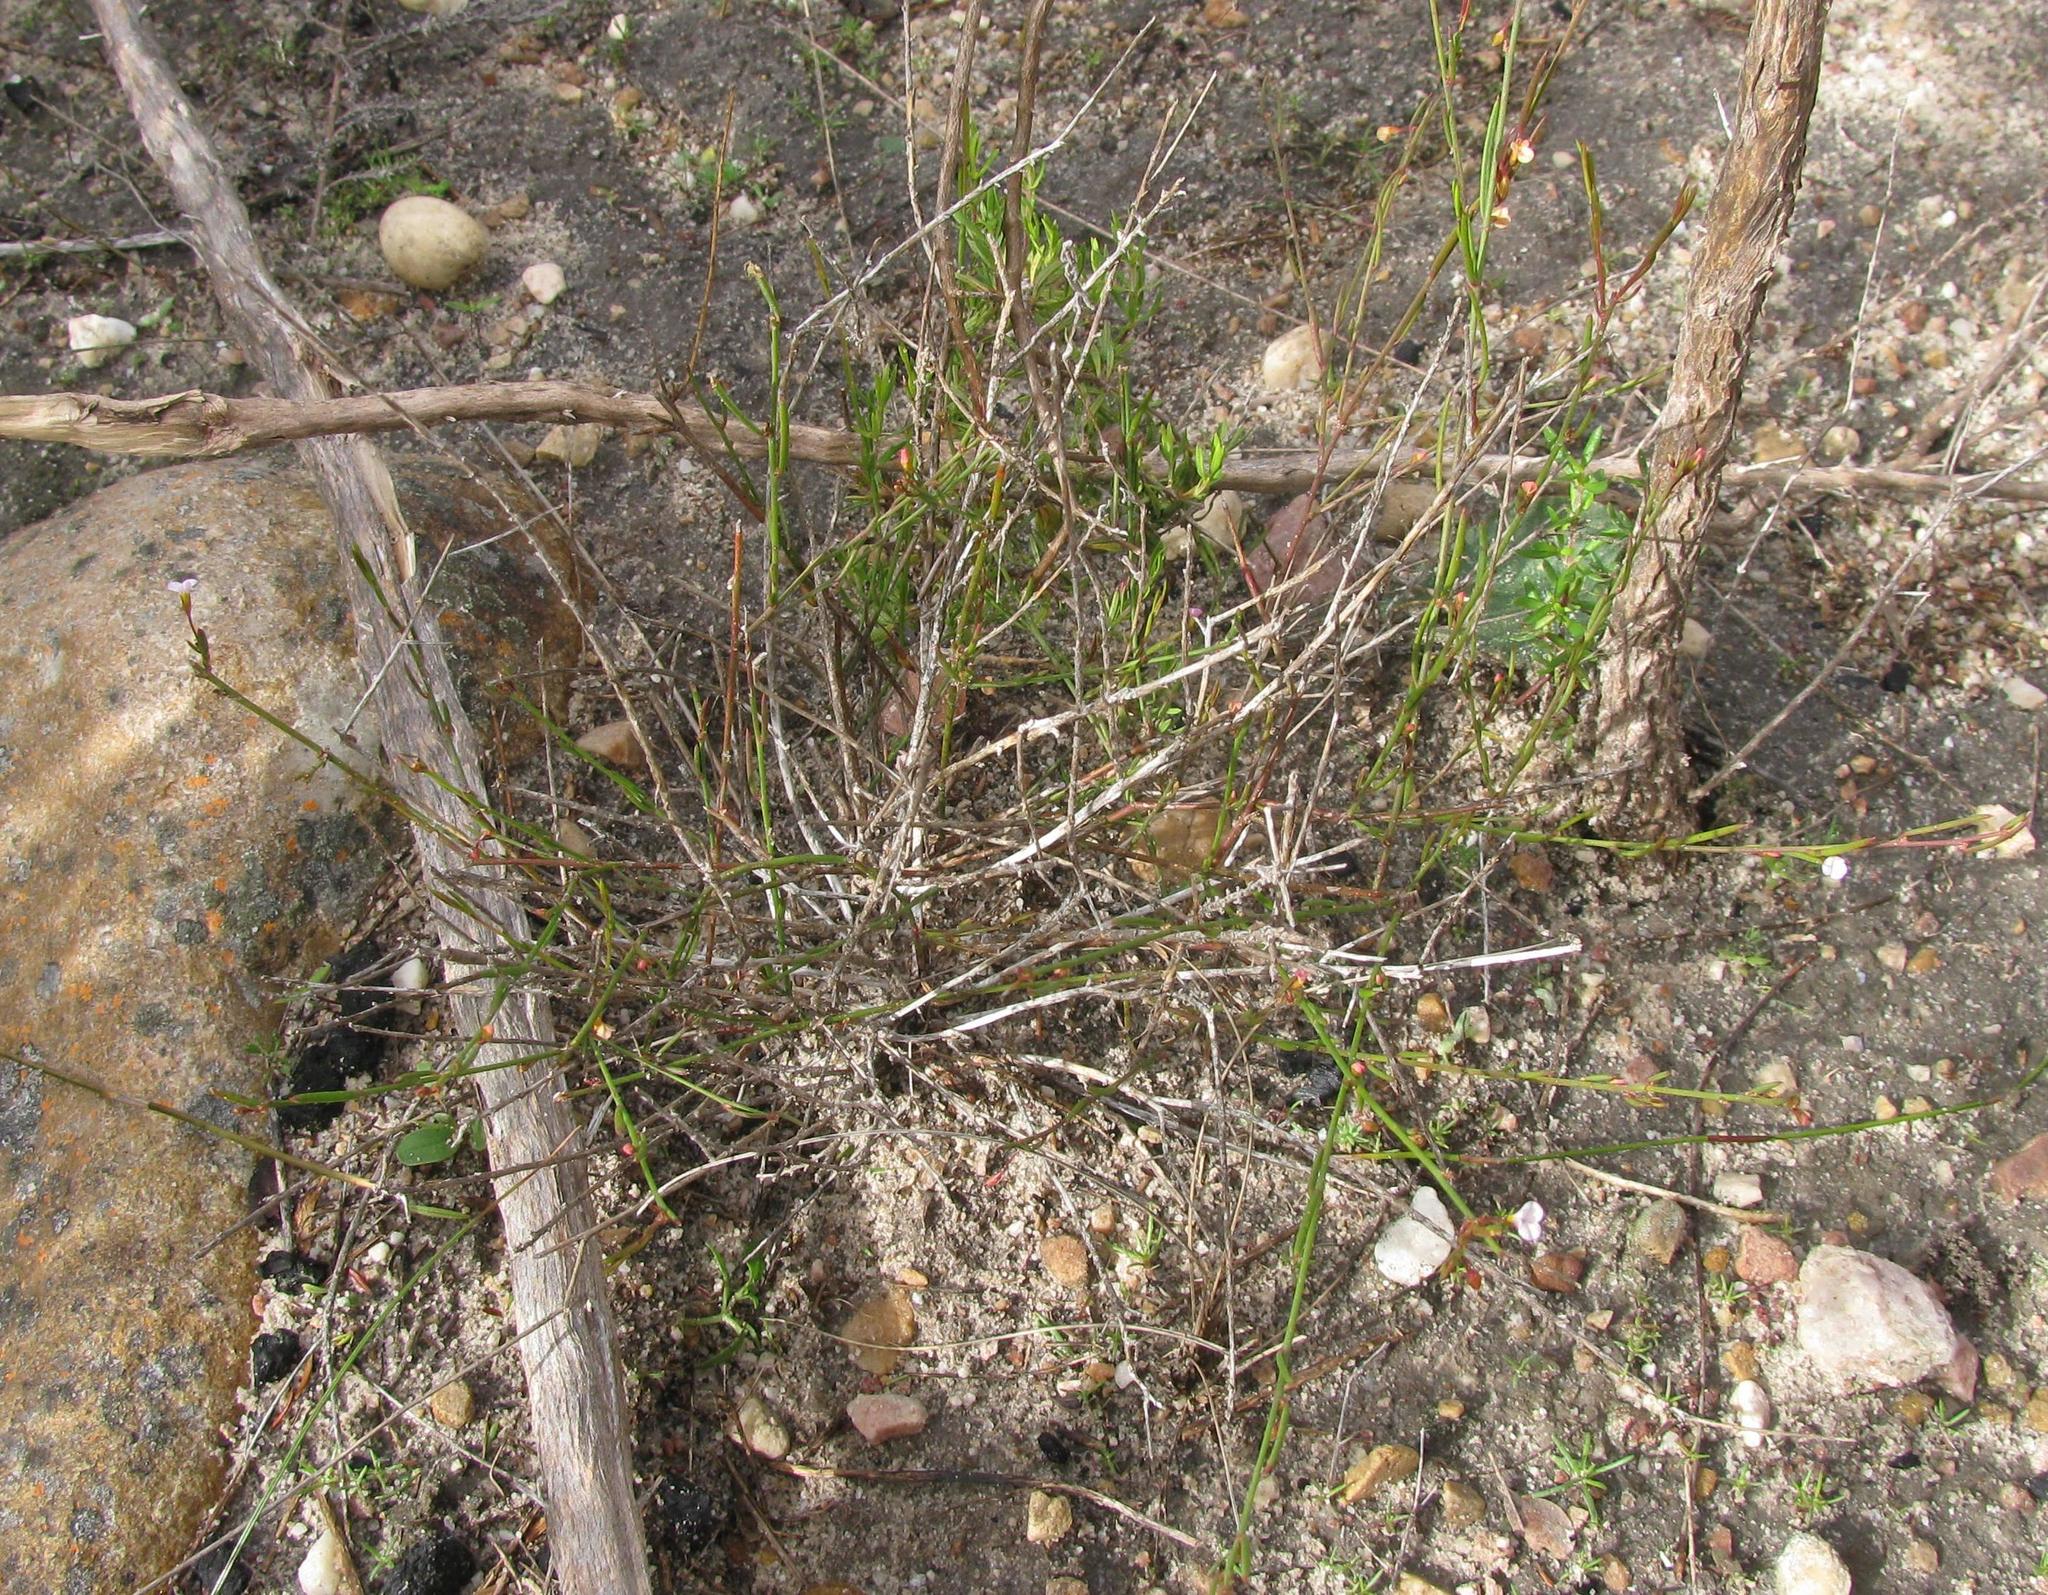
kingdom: Plantae
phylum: Tracheophyta
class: Magnoliopsida
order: Fabales
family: Polygalaceae
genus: Muraltia
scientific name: Muraltia pauciflora
